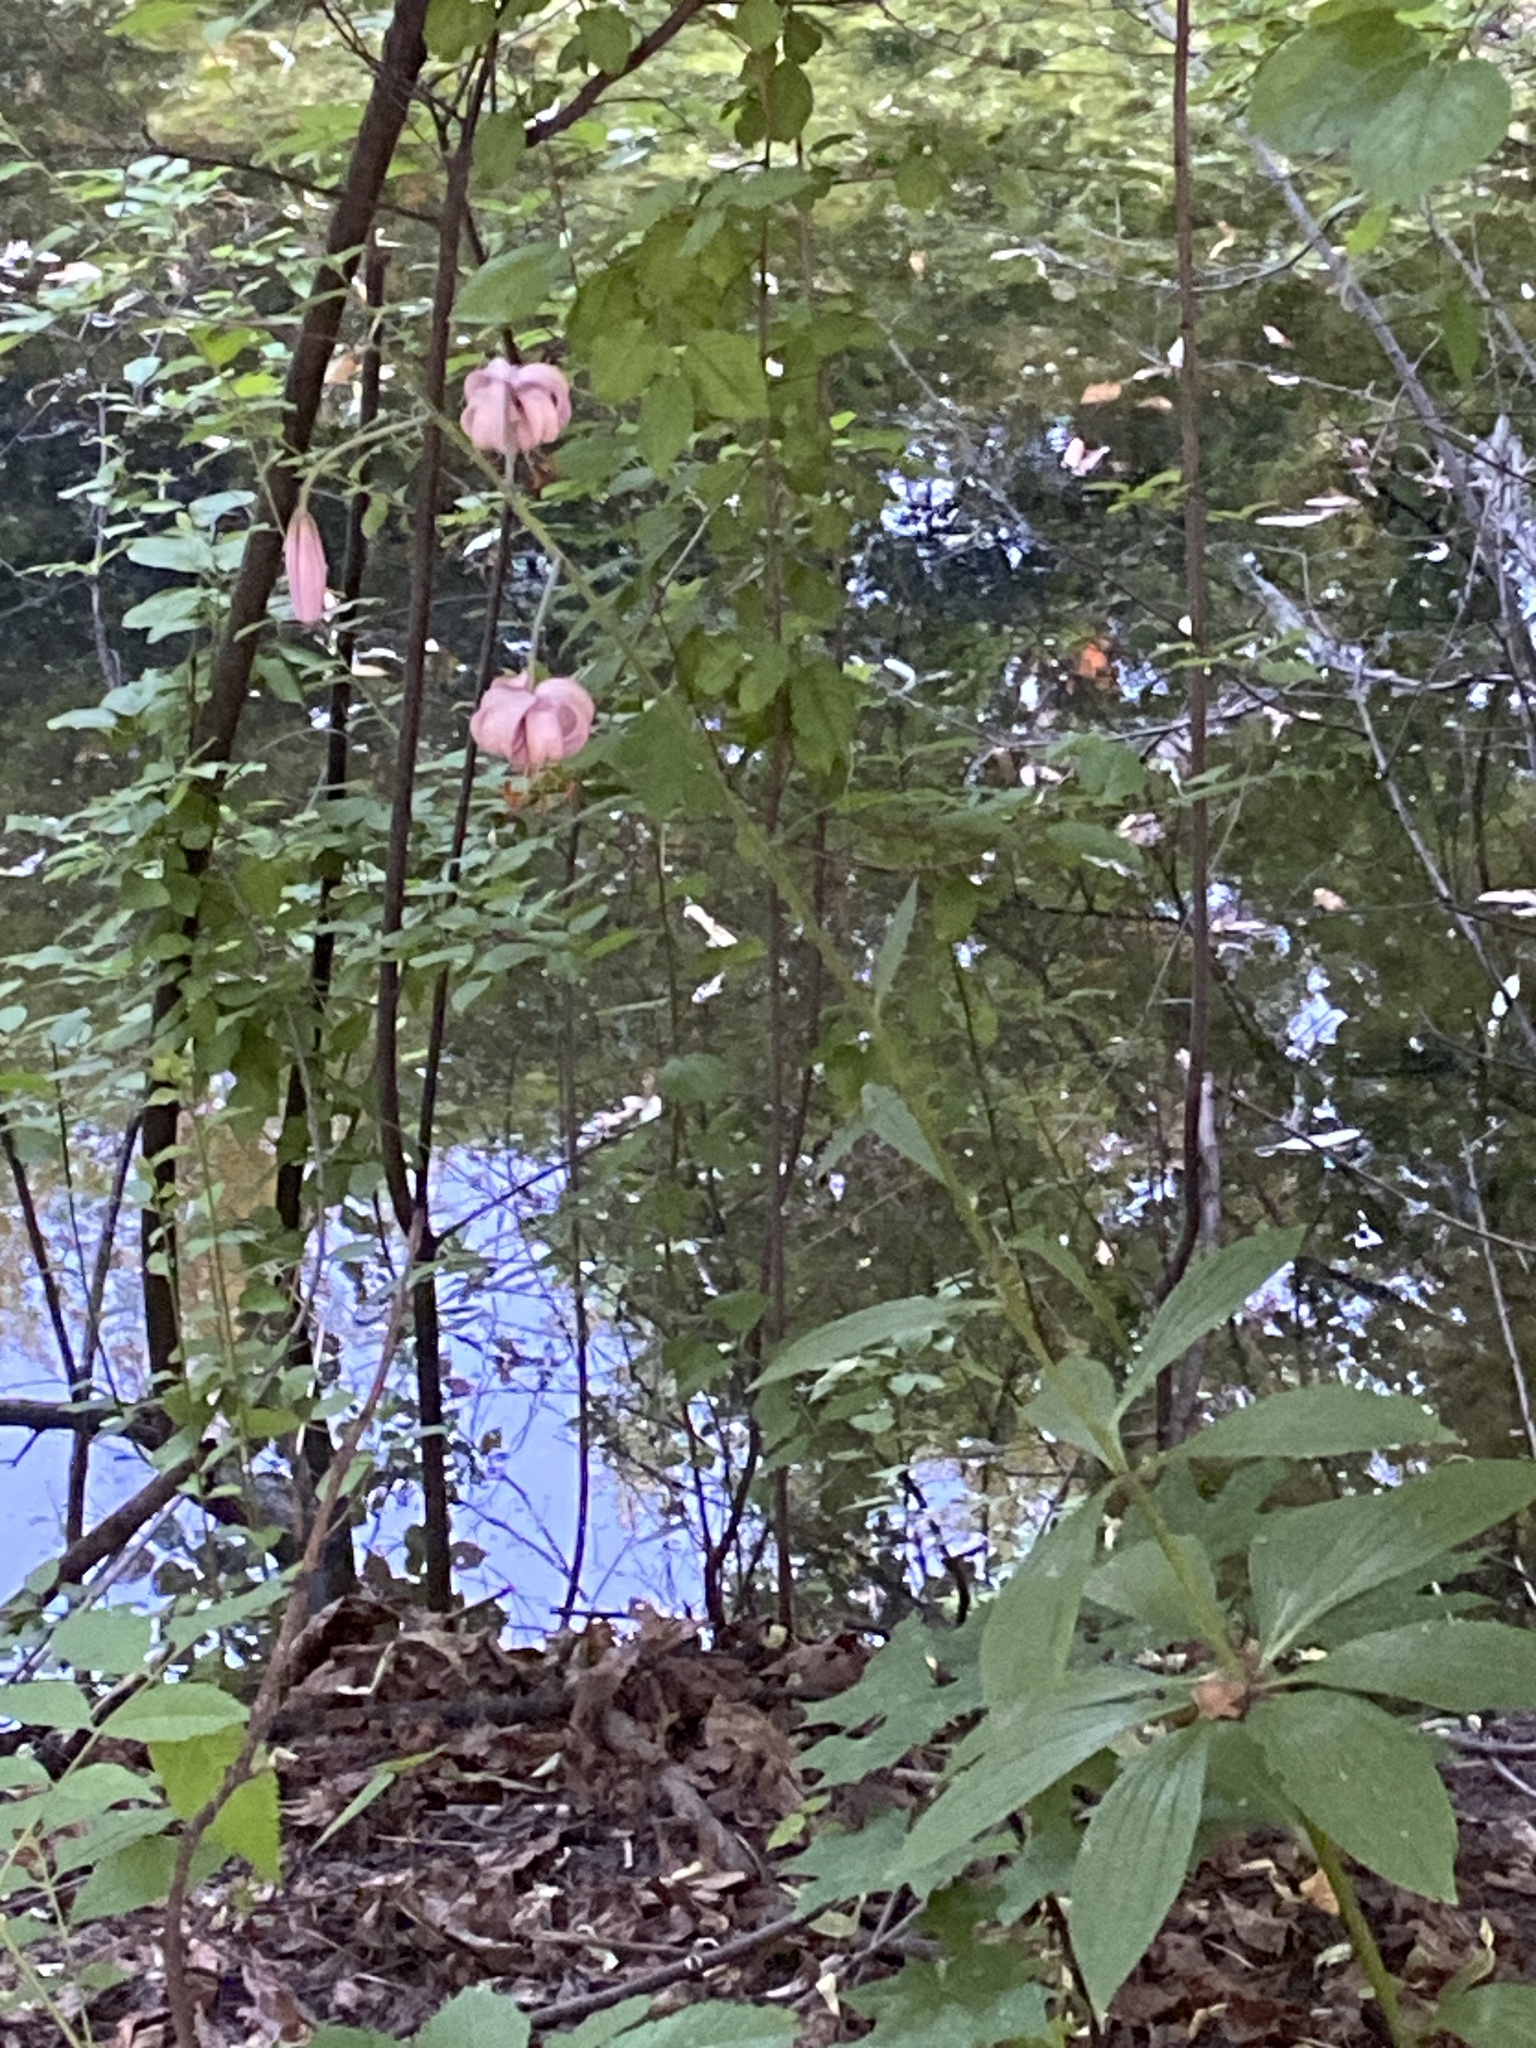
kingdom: Plantae
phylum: Tracheophyta
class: Liliopsida
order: Liliales
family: Liliaceae
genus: Lilium
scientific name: Lilium martagon
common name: Martagon lily
